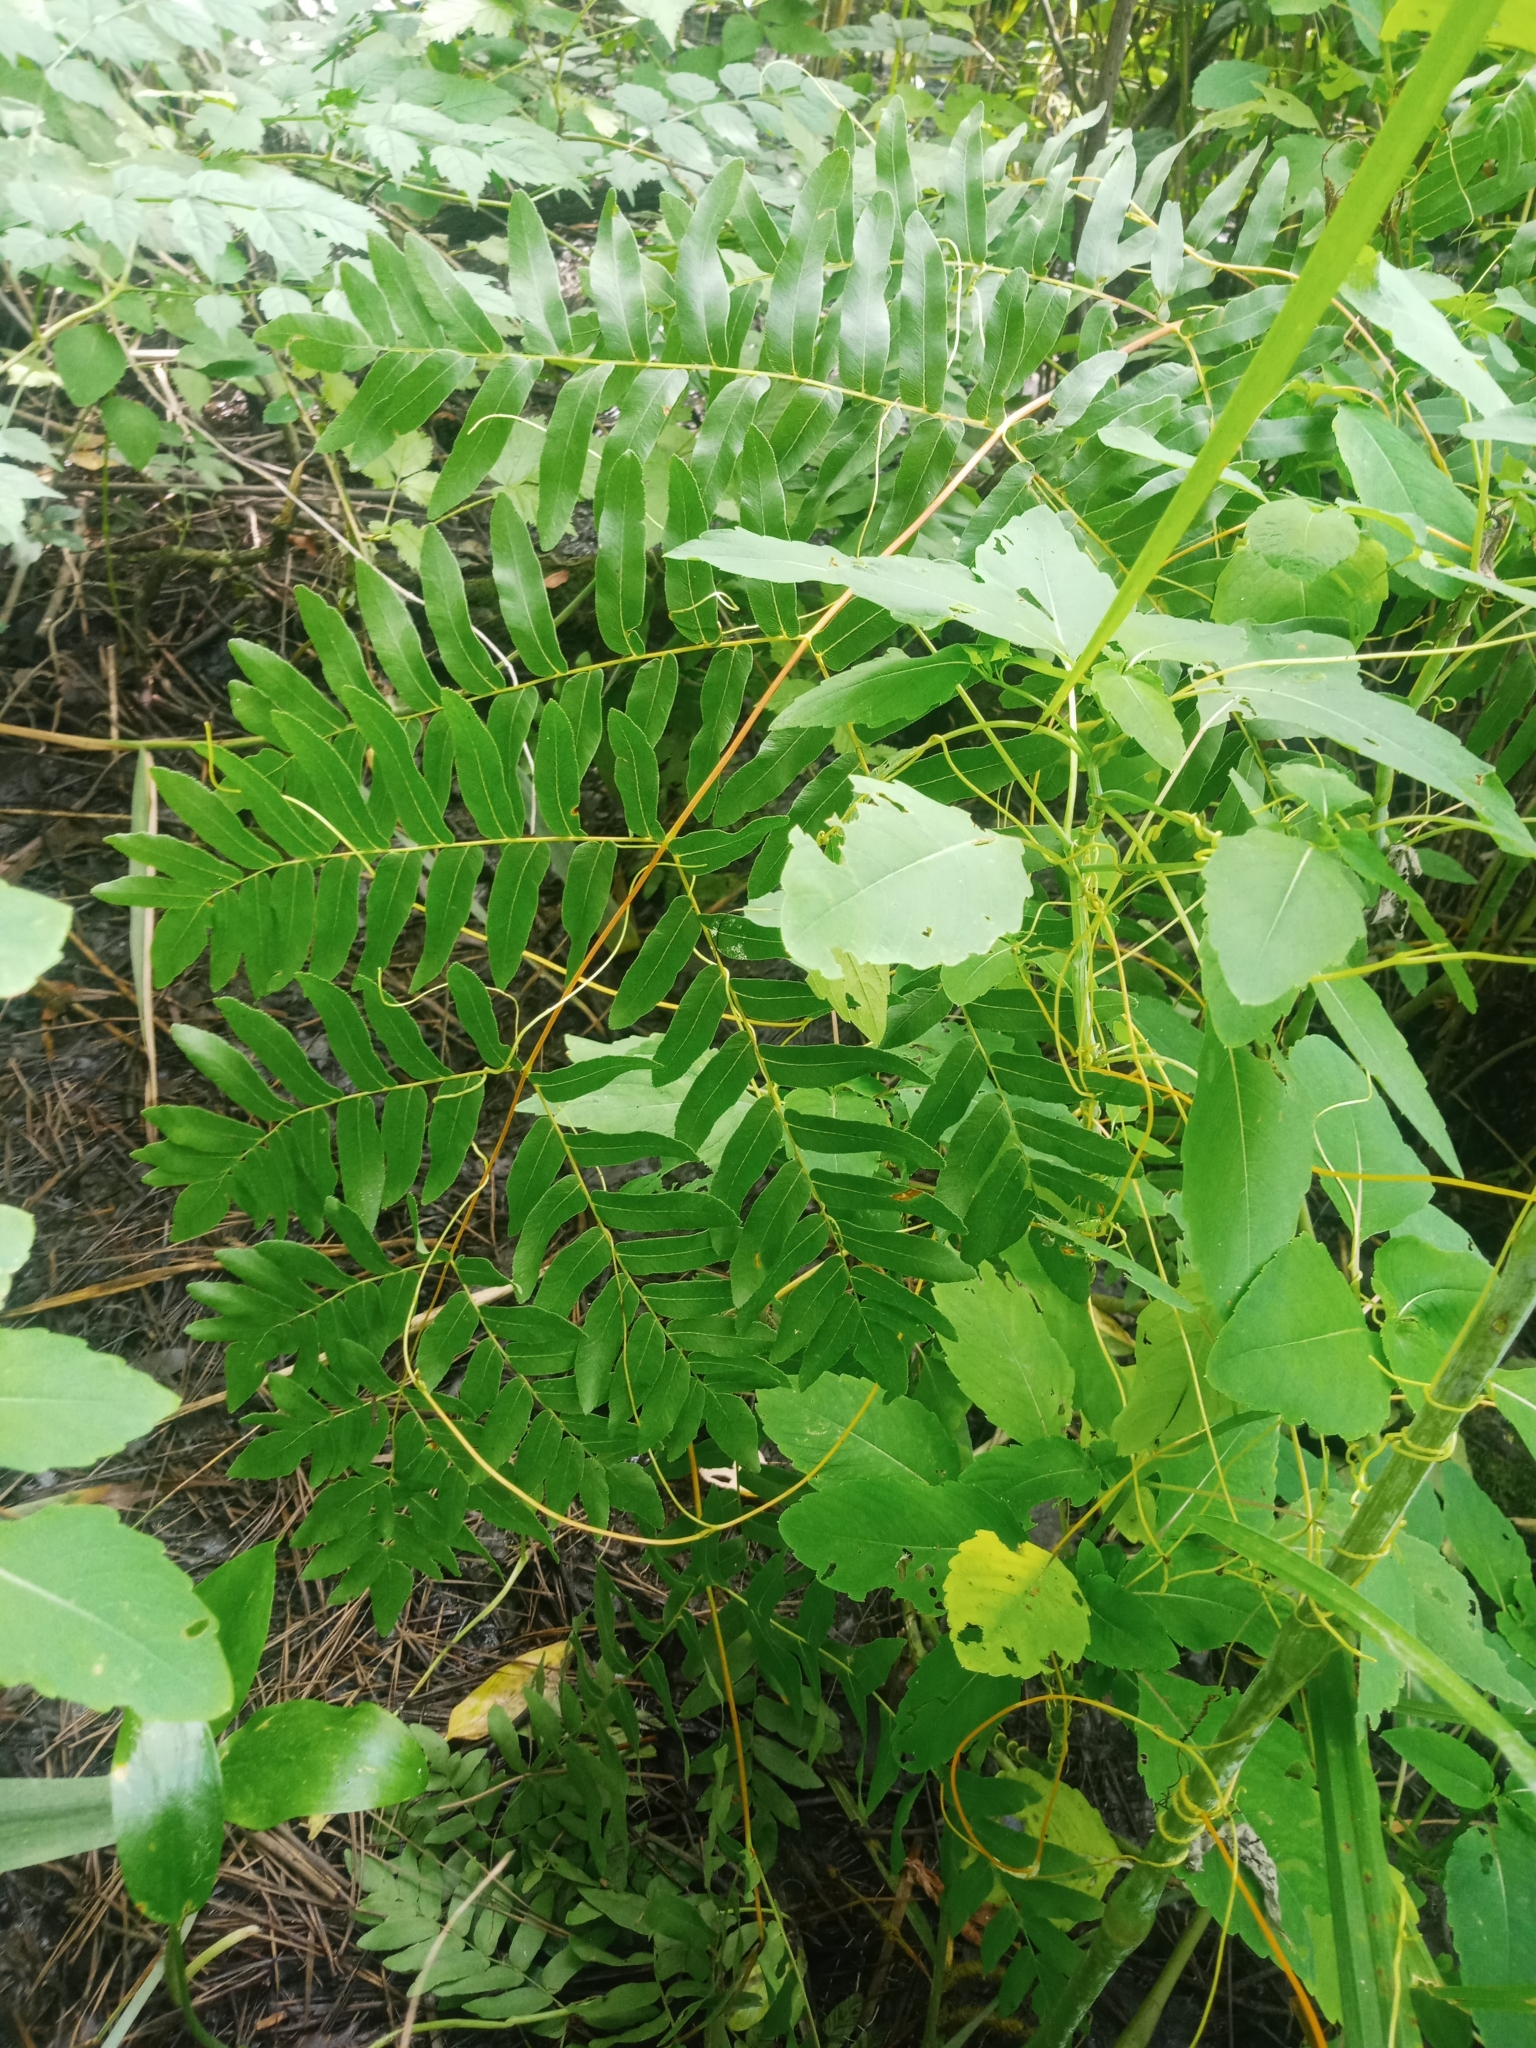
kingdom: Plantae
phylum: Tracheophyta
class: Polypodiopsida
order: Osmundales
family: Osmundaceae
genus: Osmunda
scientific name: Osmunda spectabilis
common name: American royal fern
